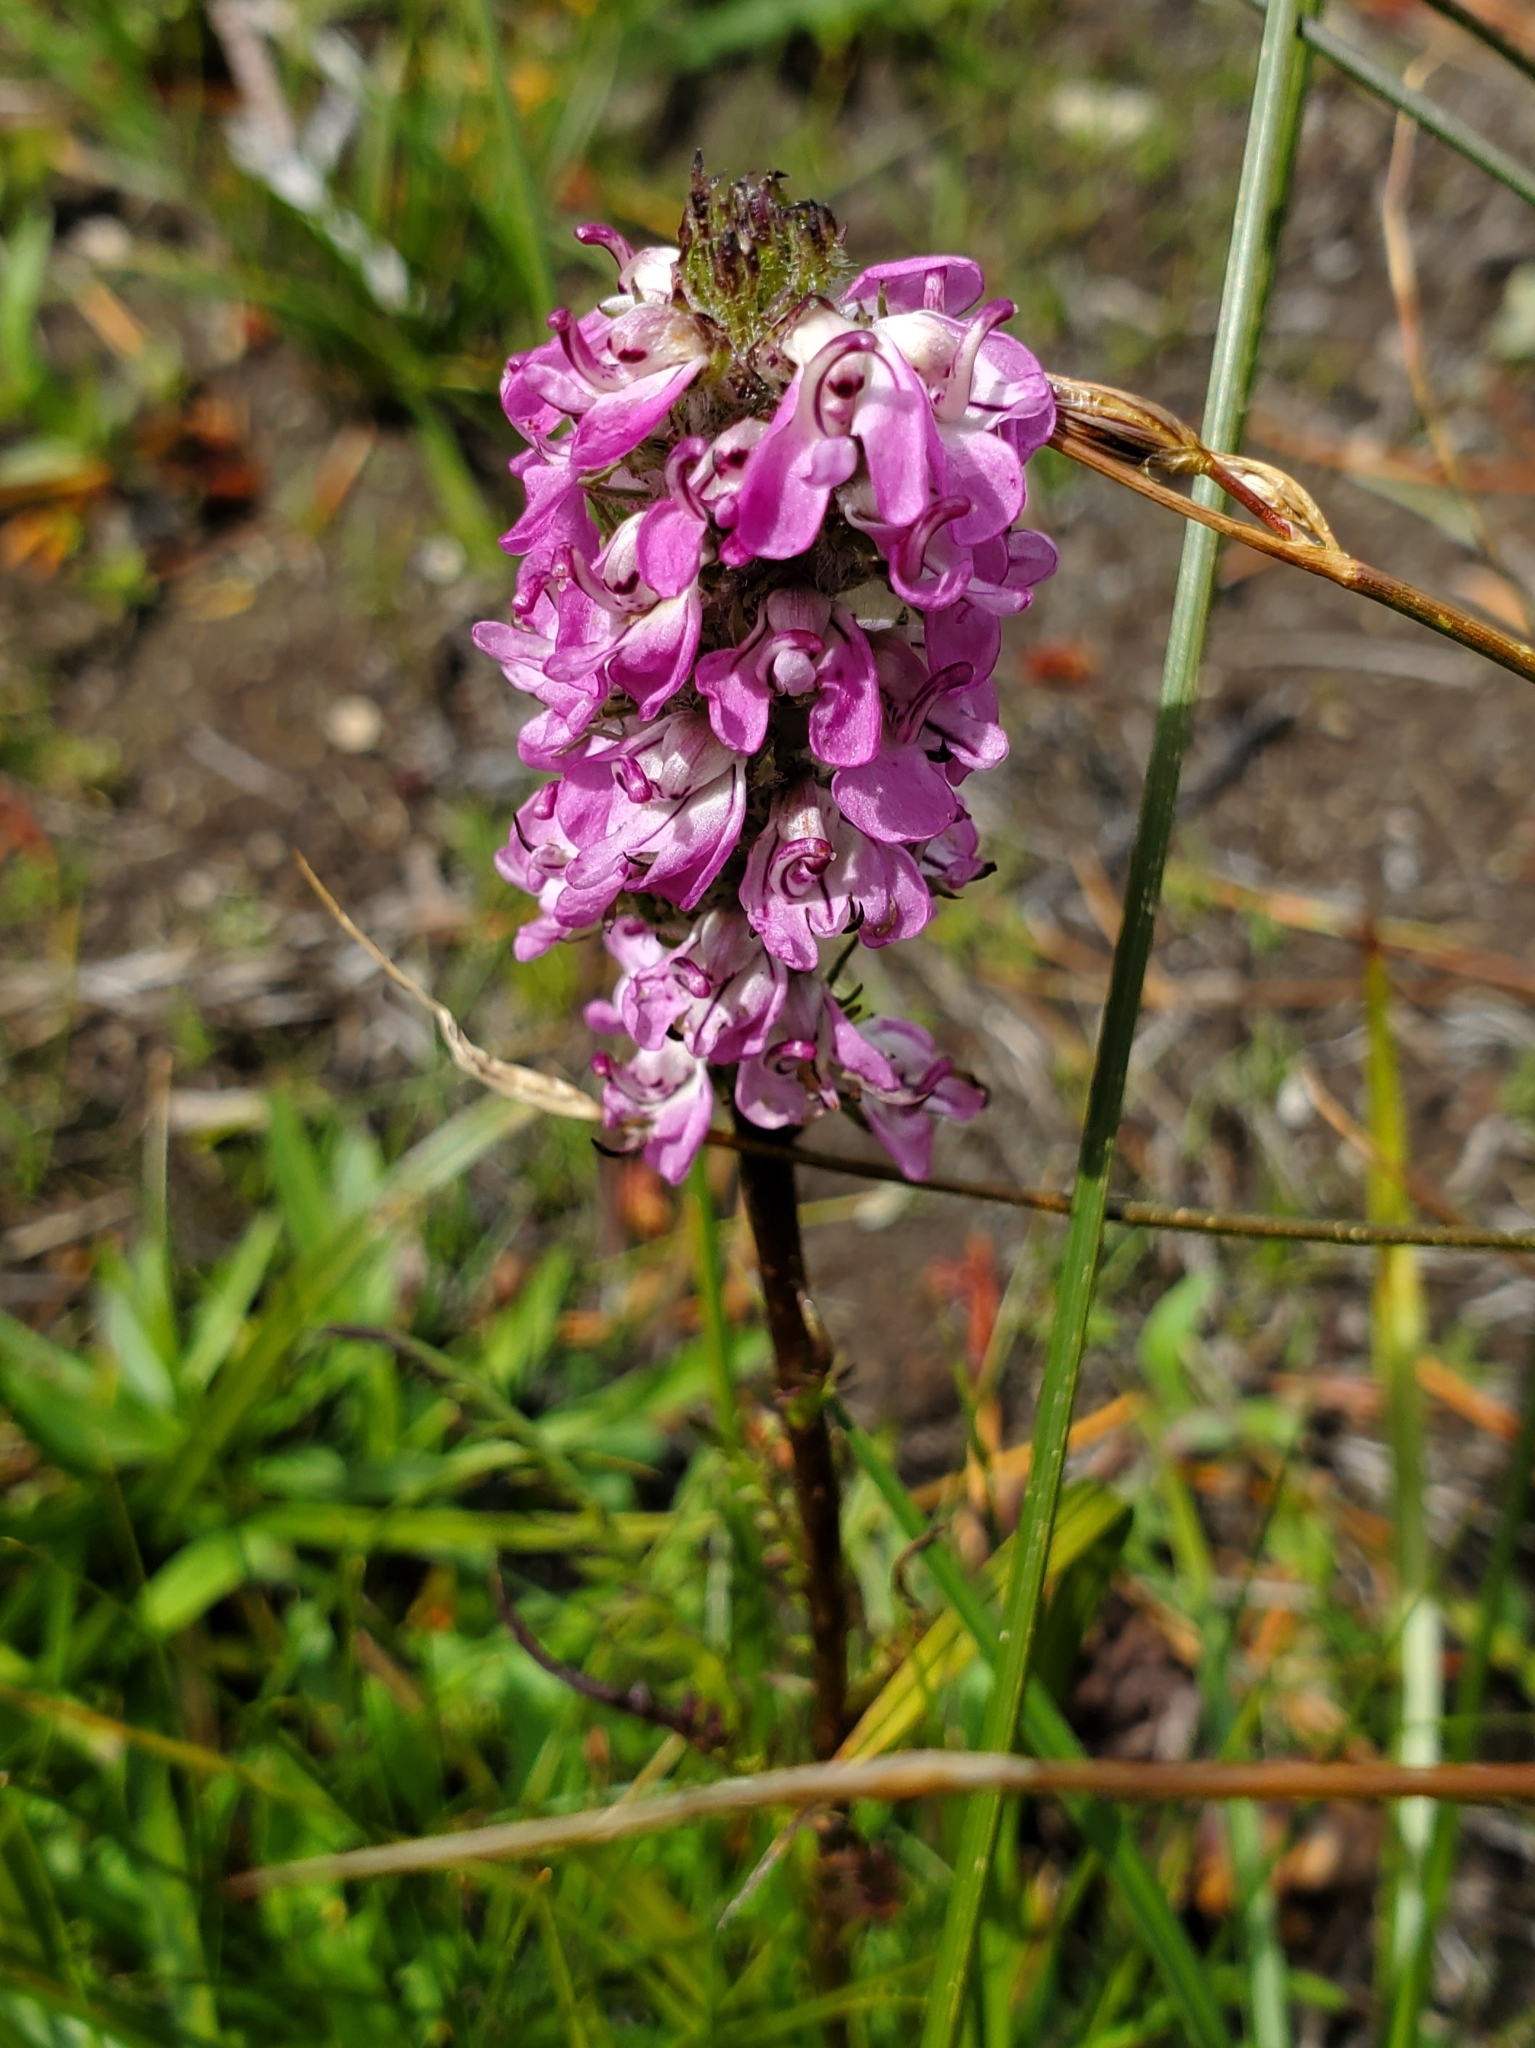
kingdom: Plantae
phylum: Tracheophyta
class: Magnoliopsida
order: Lamiales
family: Orobanchaceae
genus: Pedicularis
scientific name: Pedicularis attollens
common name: Slender pedicularis
